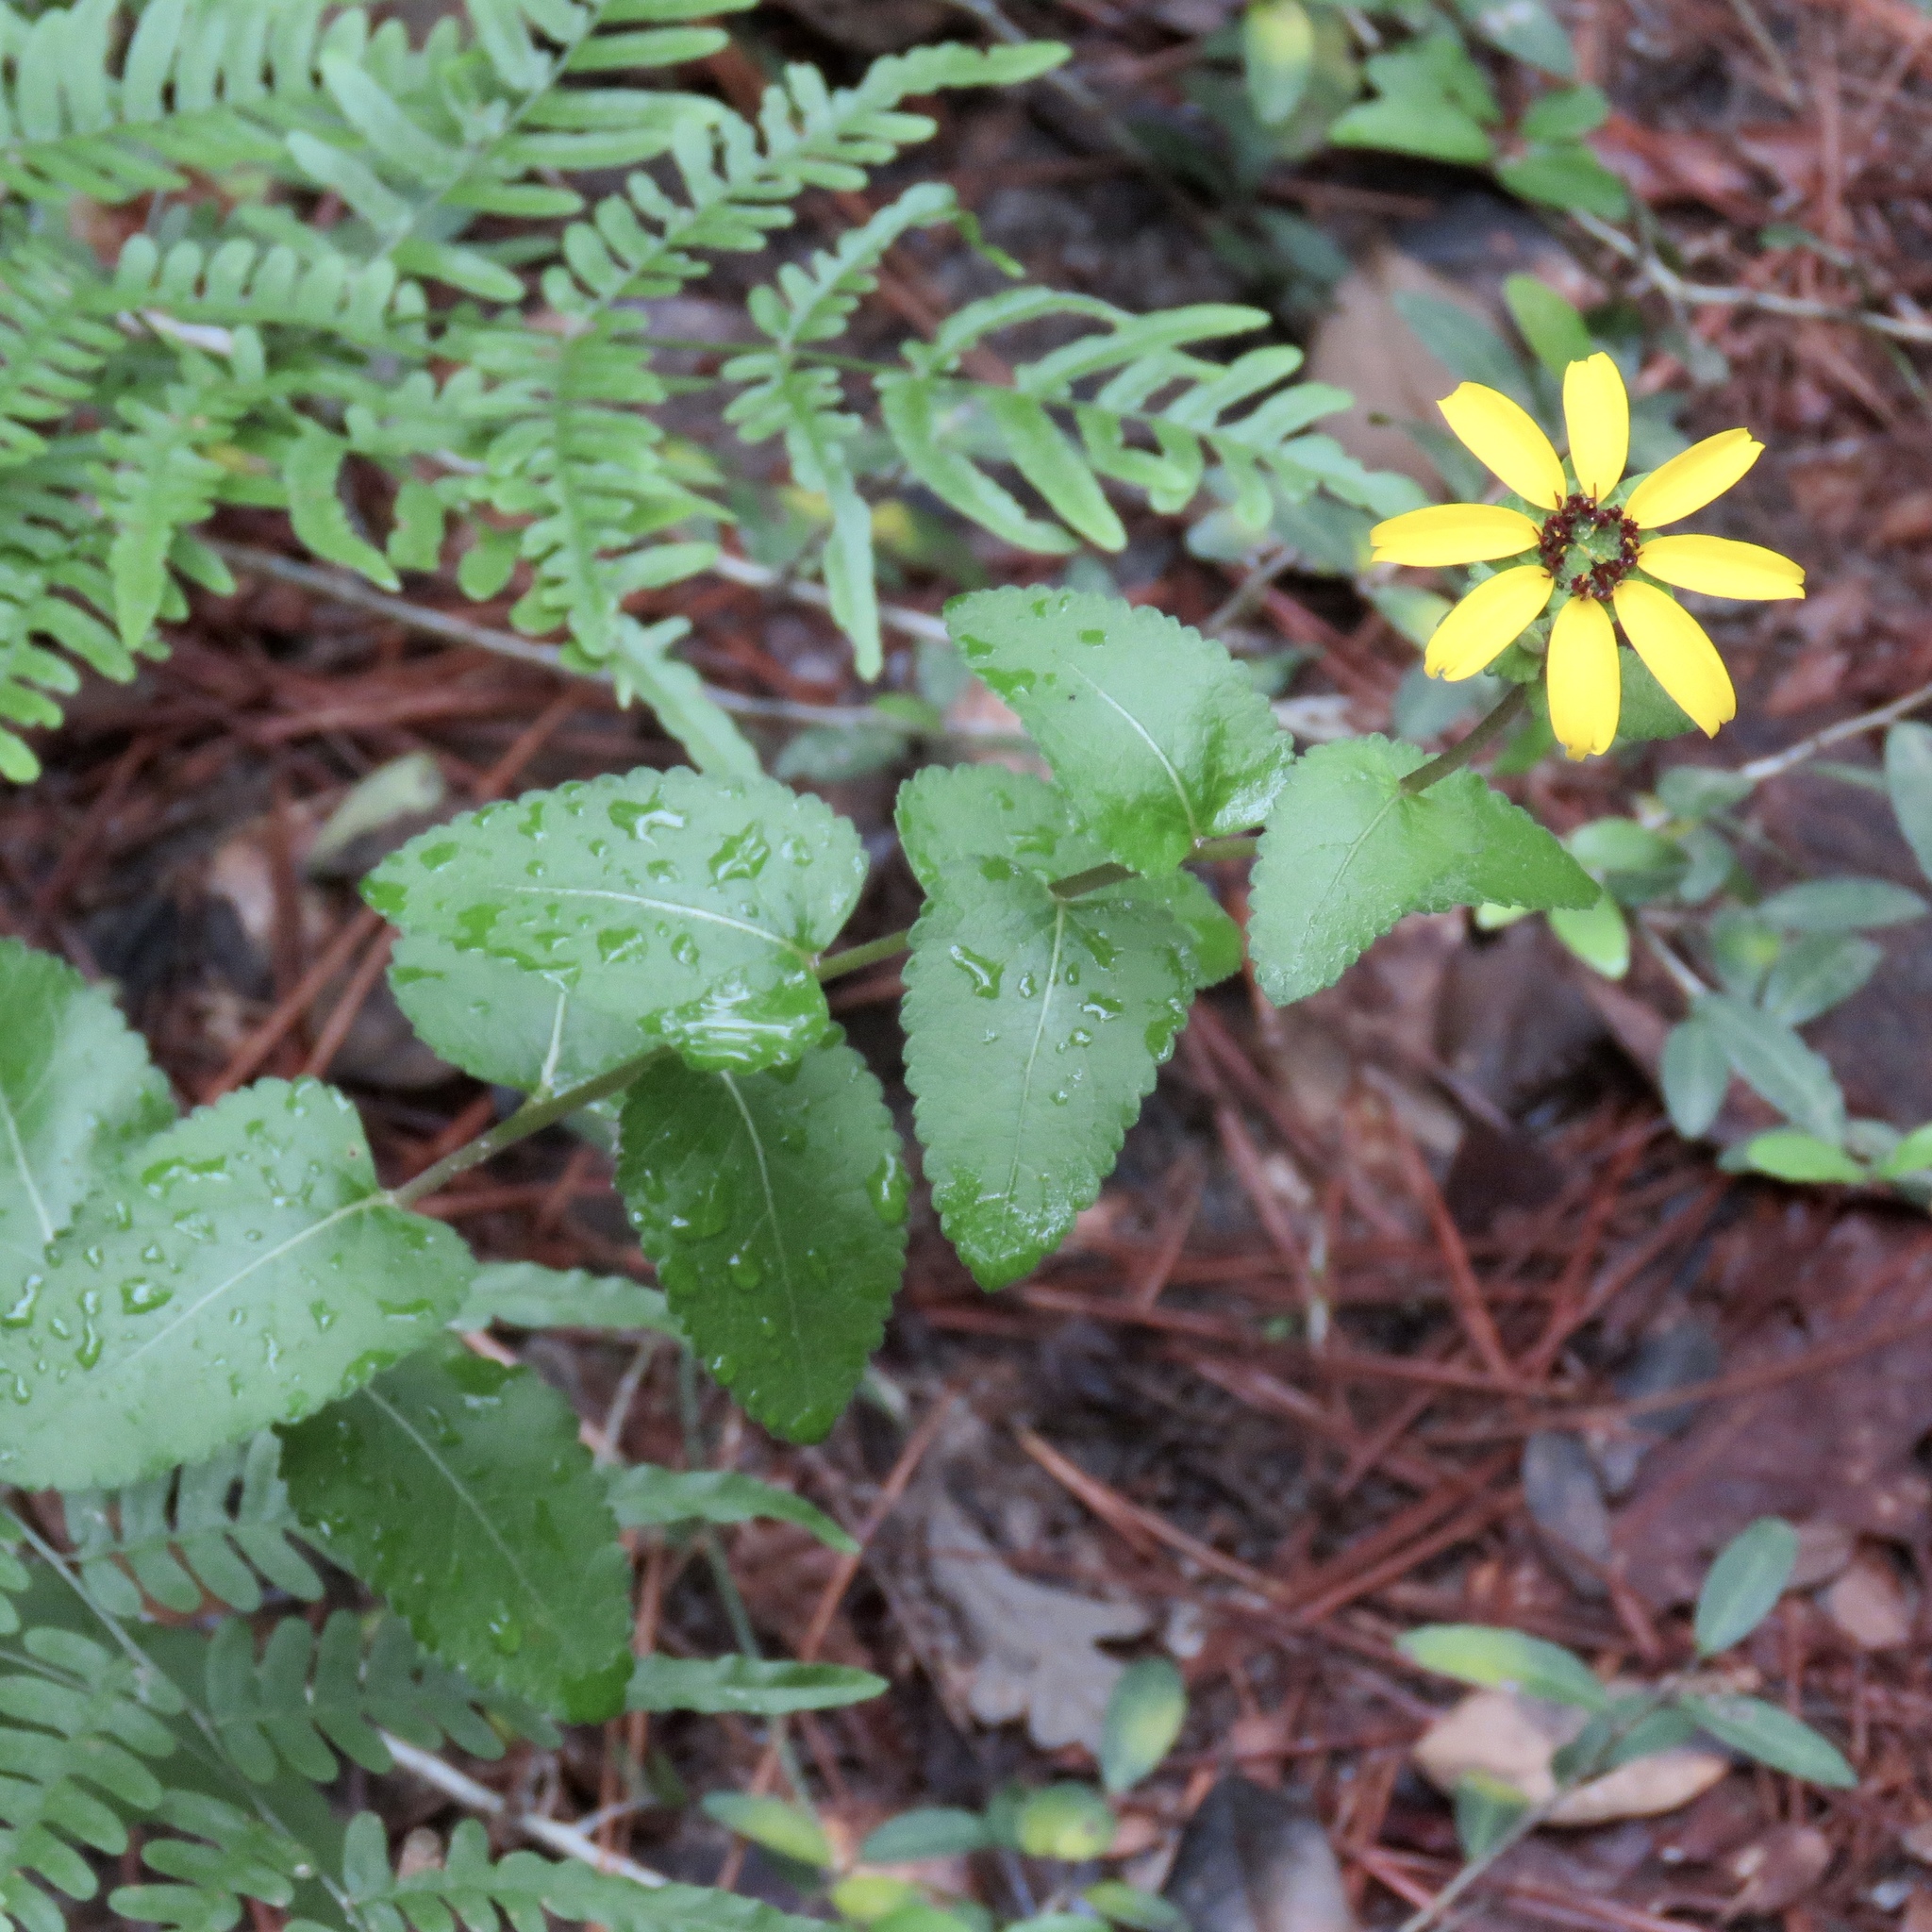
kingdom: Plantae
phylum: Tracheophyta
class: Magnoliopsida
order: Asterales
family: Asteraceae
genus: Berlandiera
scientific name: Berlandiera pumila
